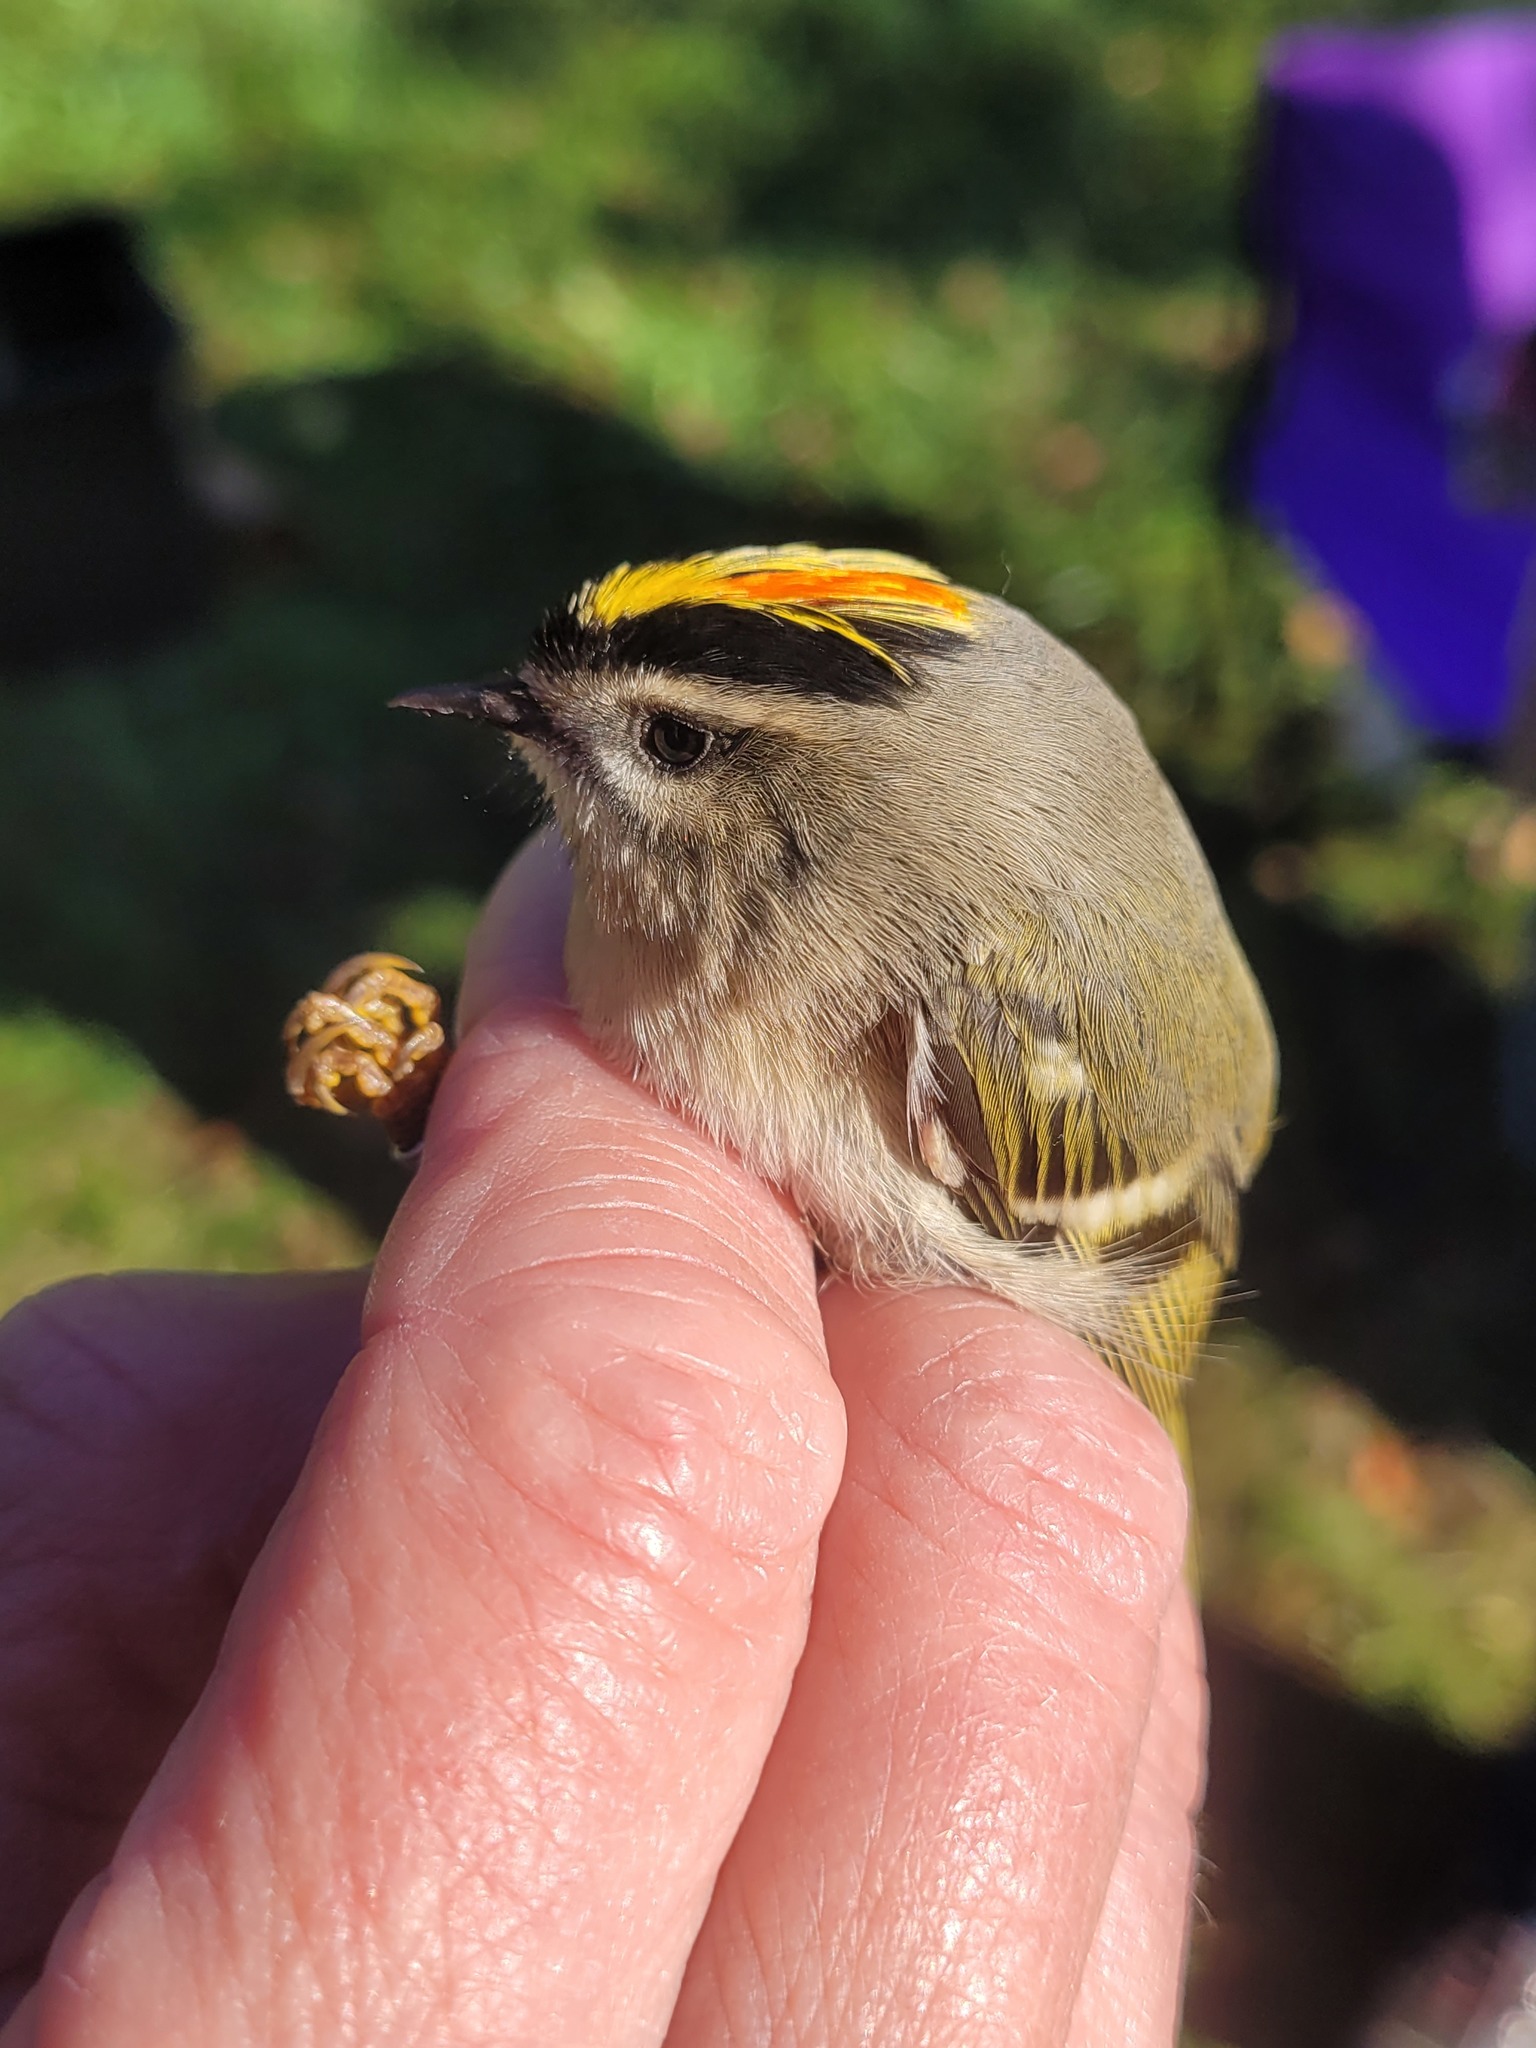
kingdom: Animalia
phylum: Chordata
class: Aves
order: Passeriformes
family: Regulidae
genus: Regulus
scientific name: Regulus satrapa
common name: Golden-crowned kinglet
